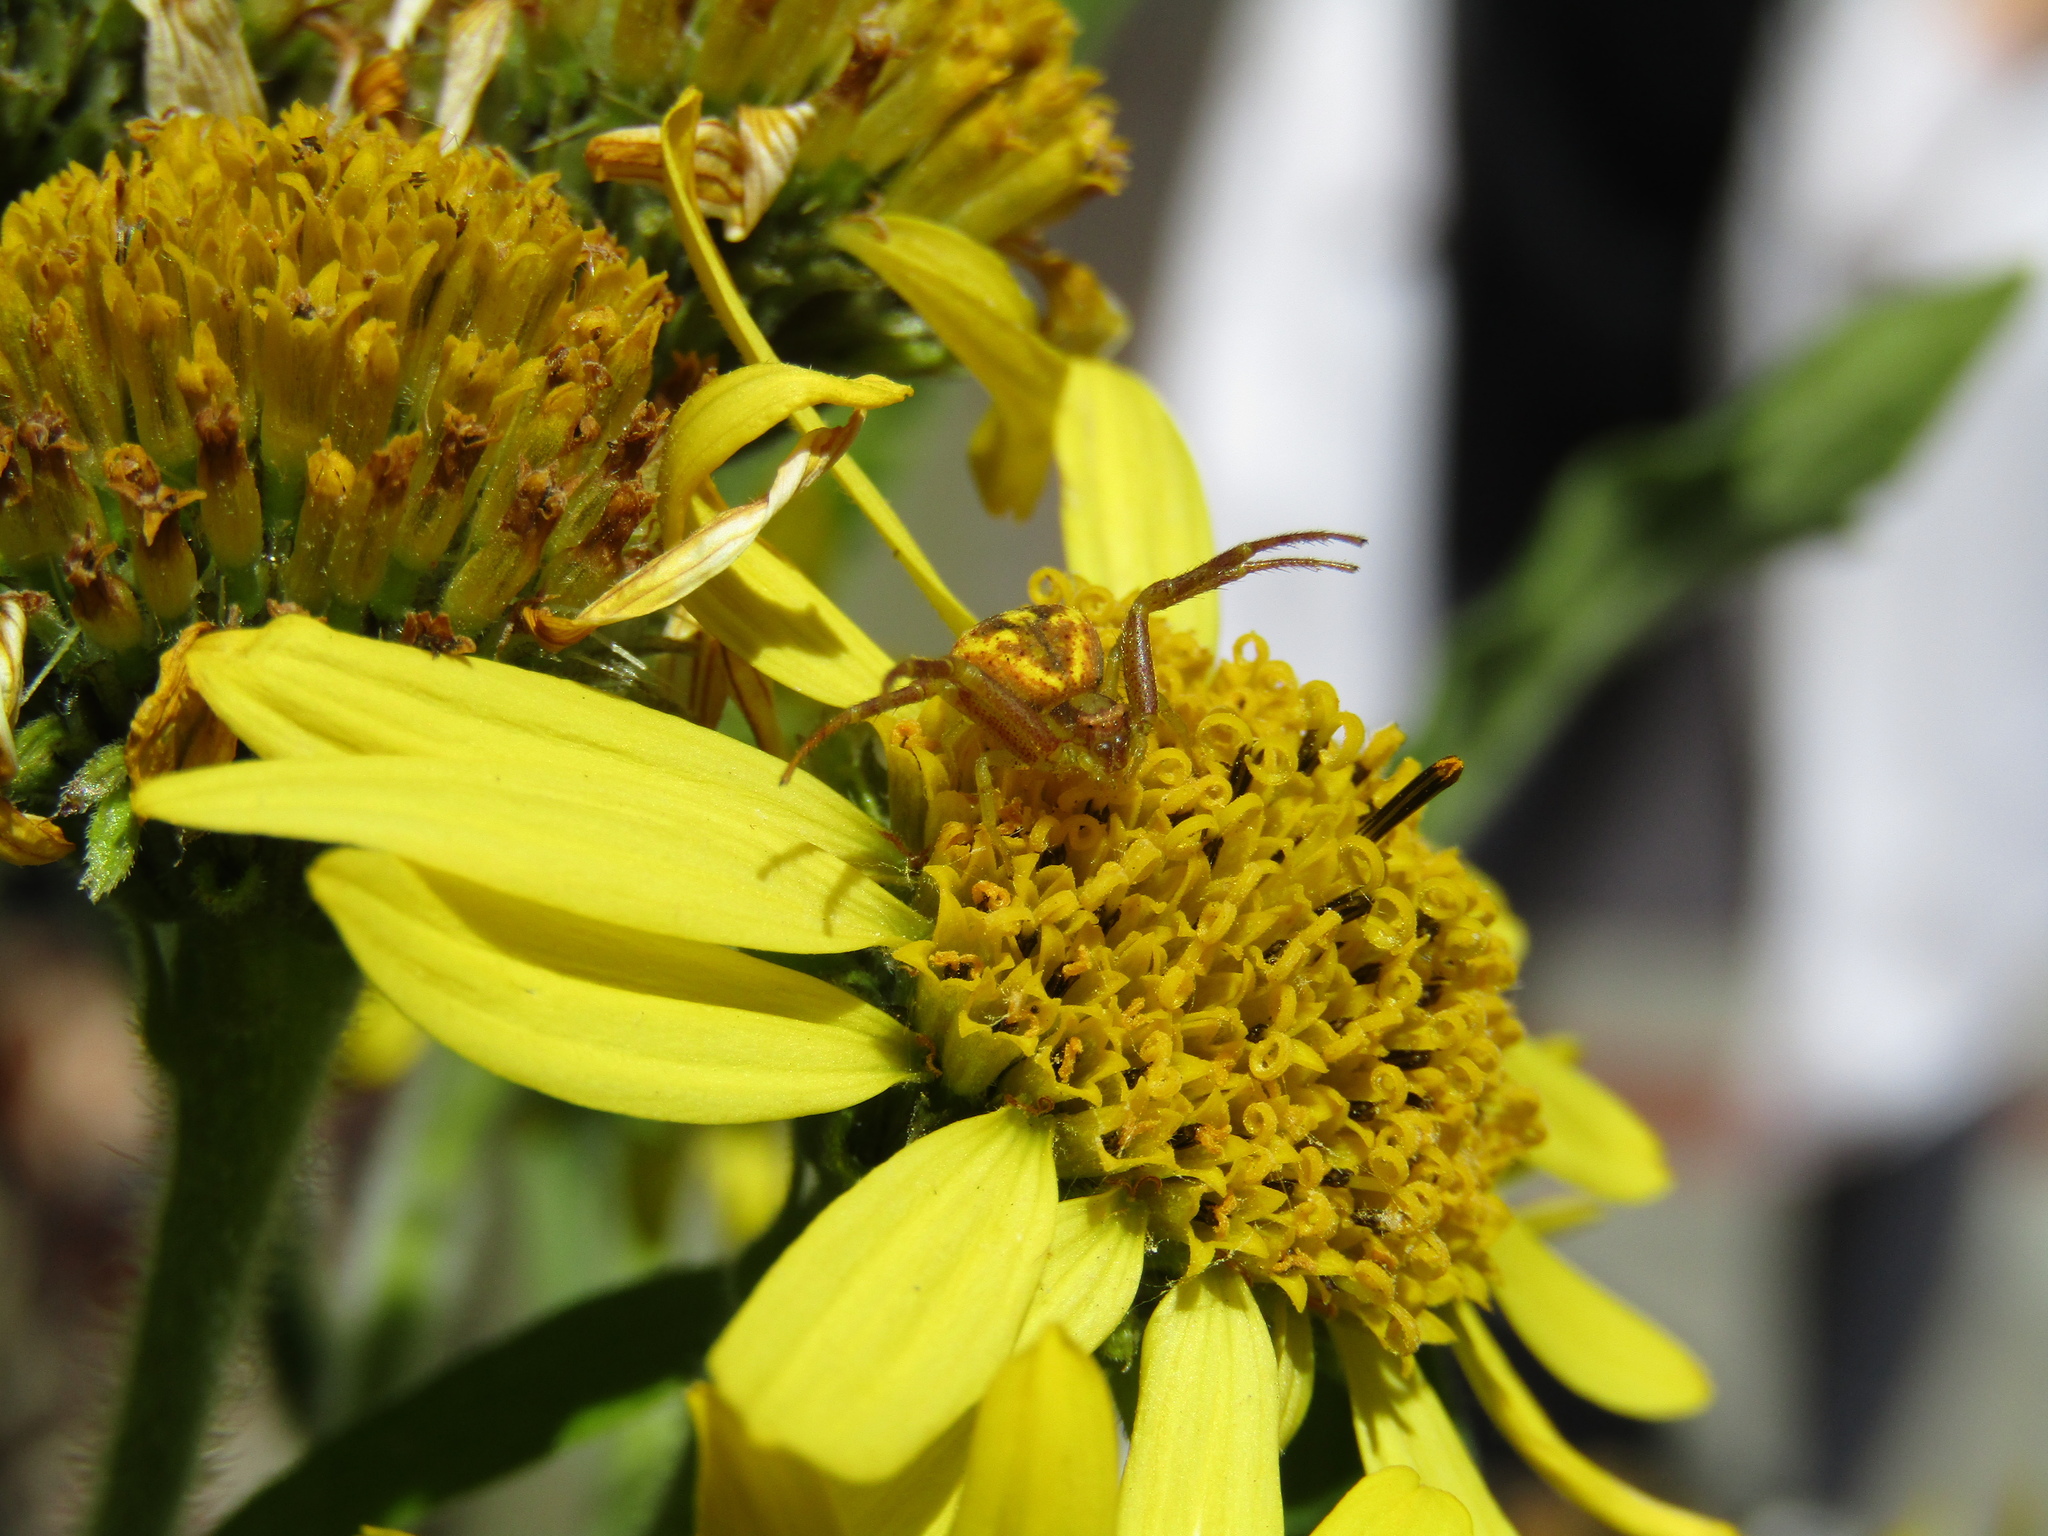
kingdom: Animalia
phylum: Arthropoda
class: Arachnida
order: Araneae
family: Thomisidae
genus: Misumenops
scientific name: Misumenops
